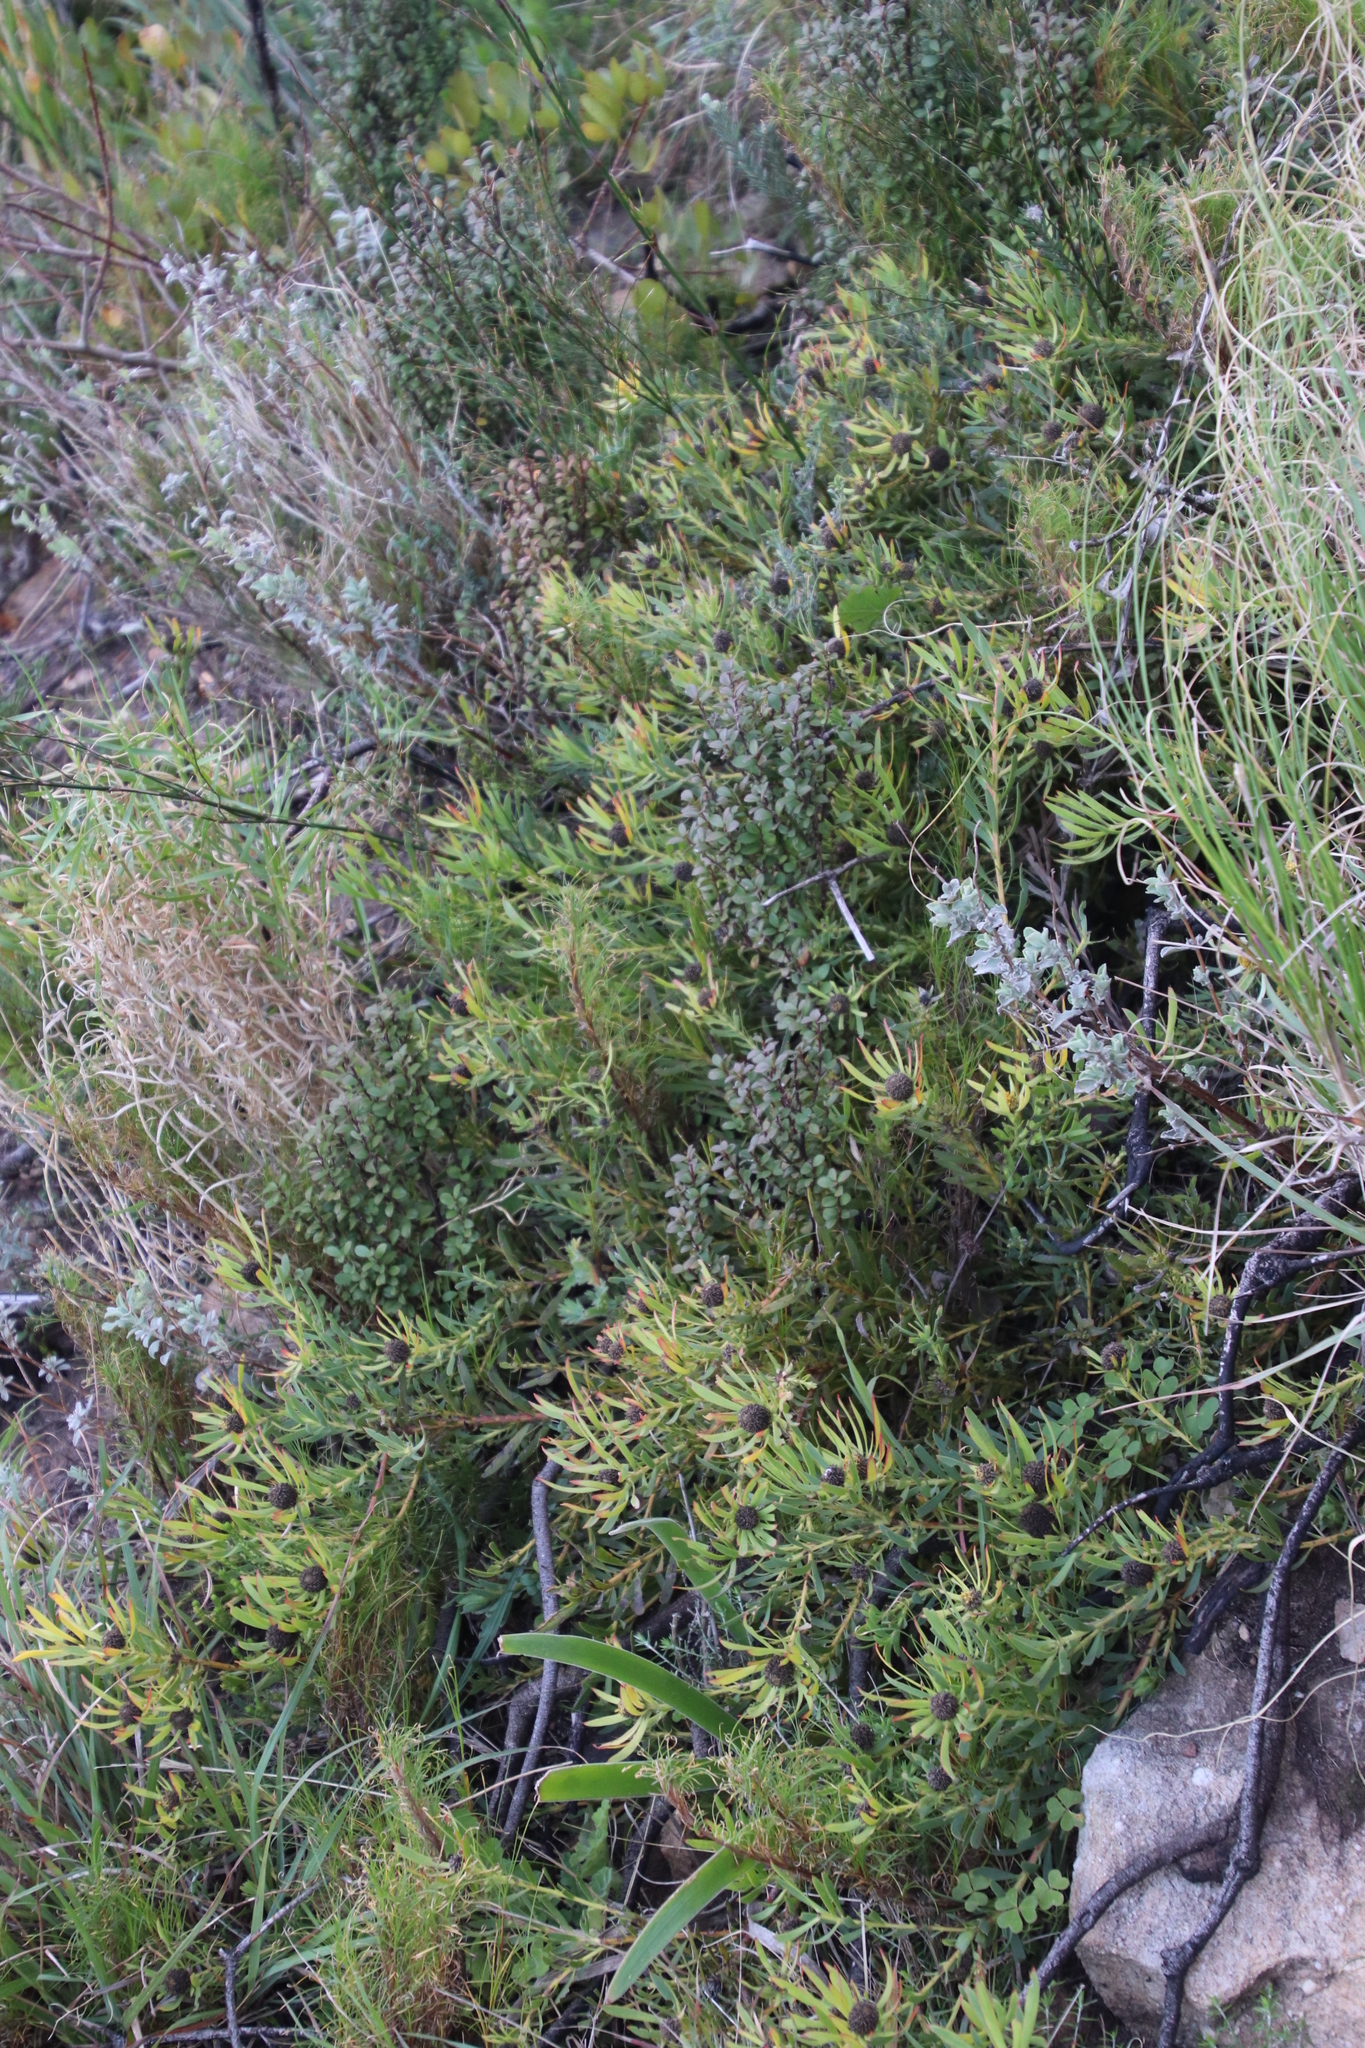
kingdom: Plantae
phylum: Tracheophyta
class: Magnoliopsida
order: Proteales
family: Proteaceae
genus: Leucadendron
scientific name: Leucadendron salignum
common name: Common sunshine conebush
